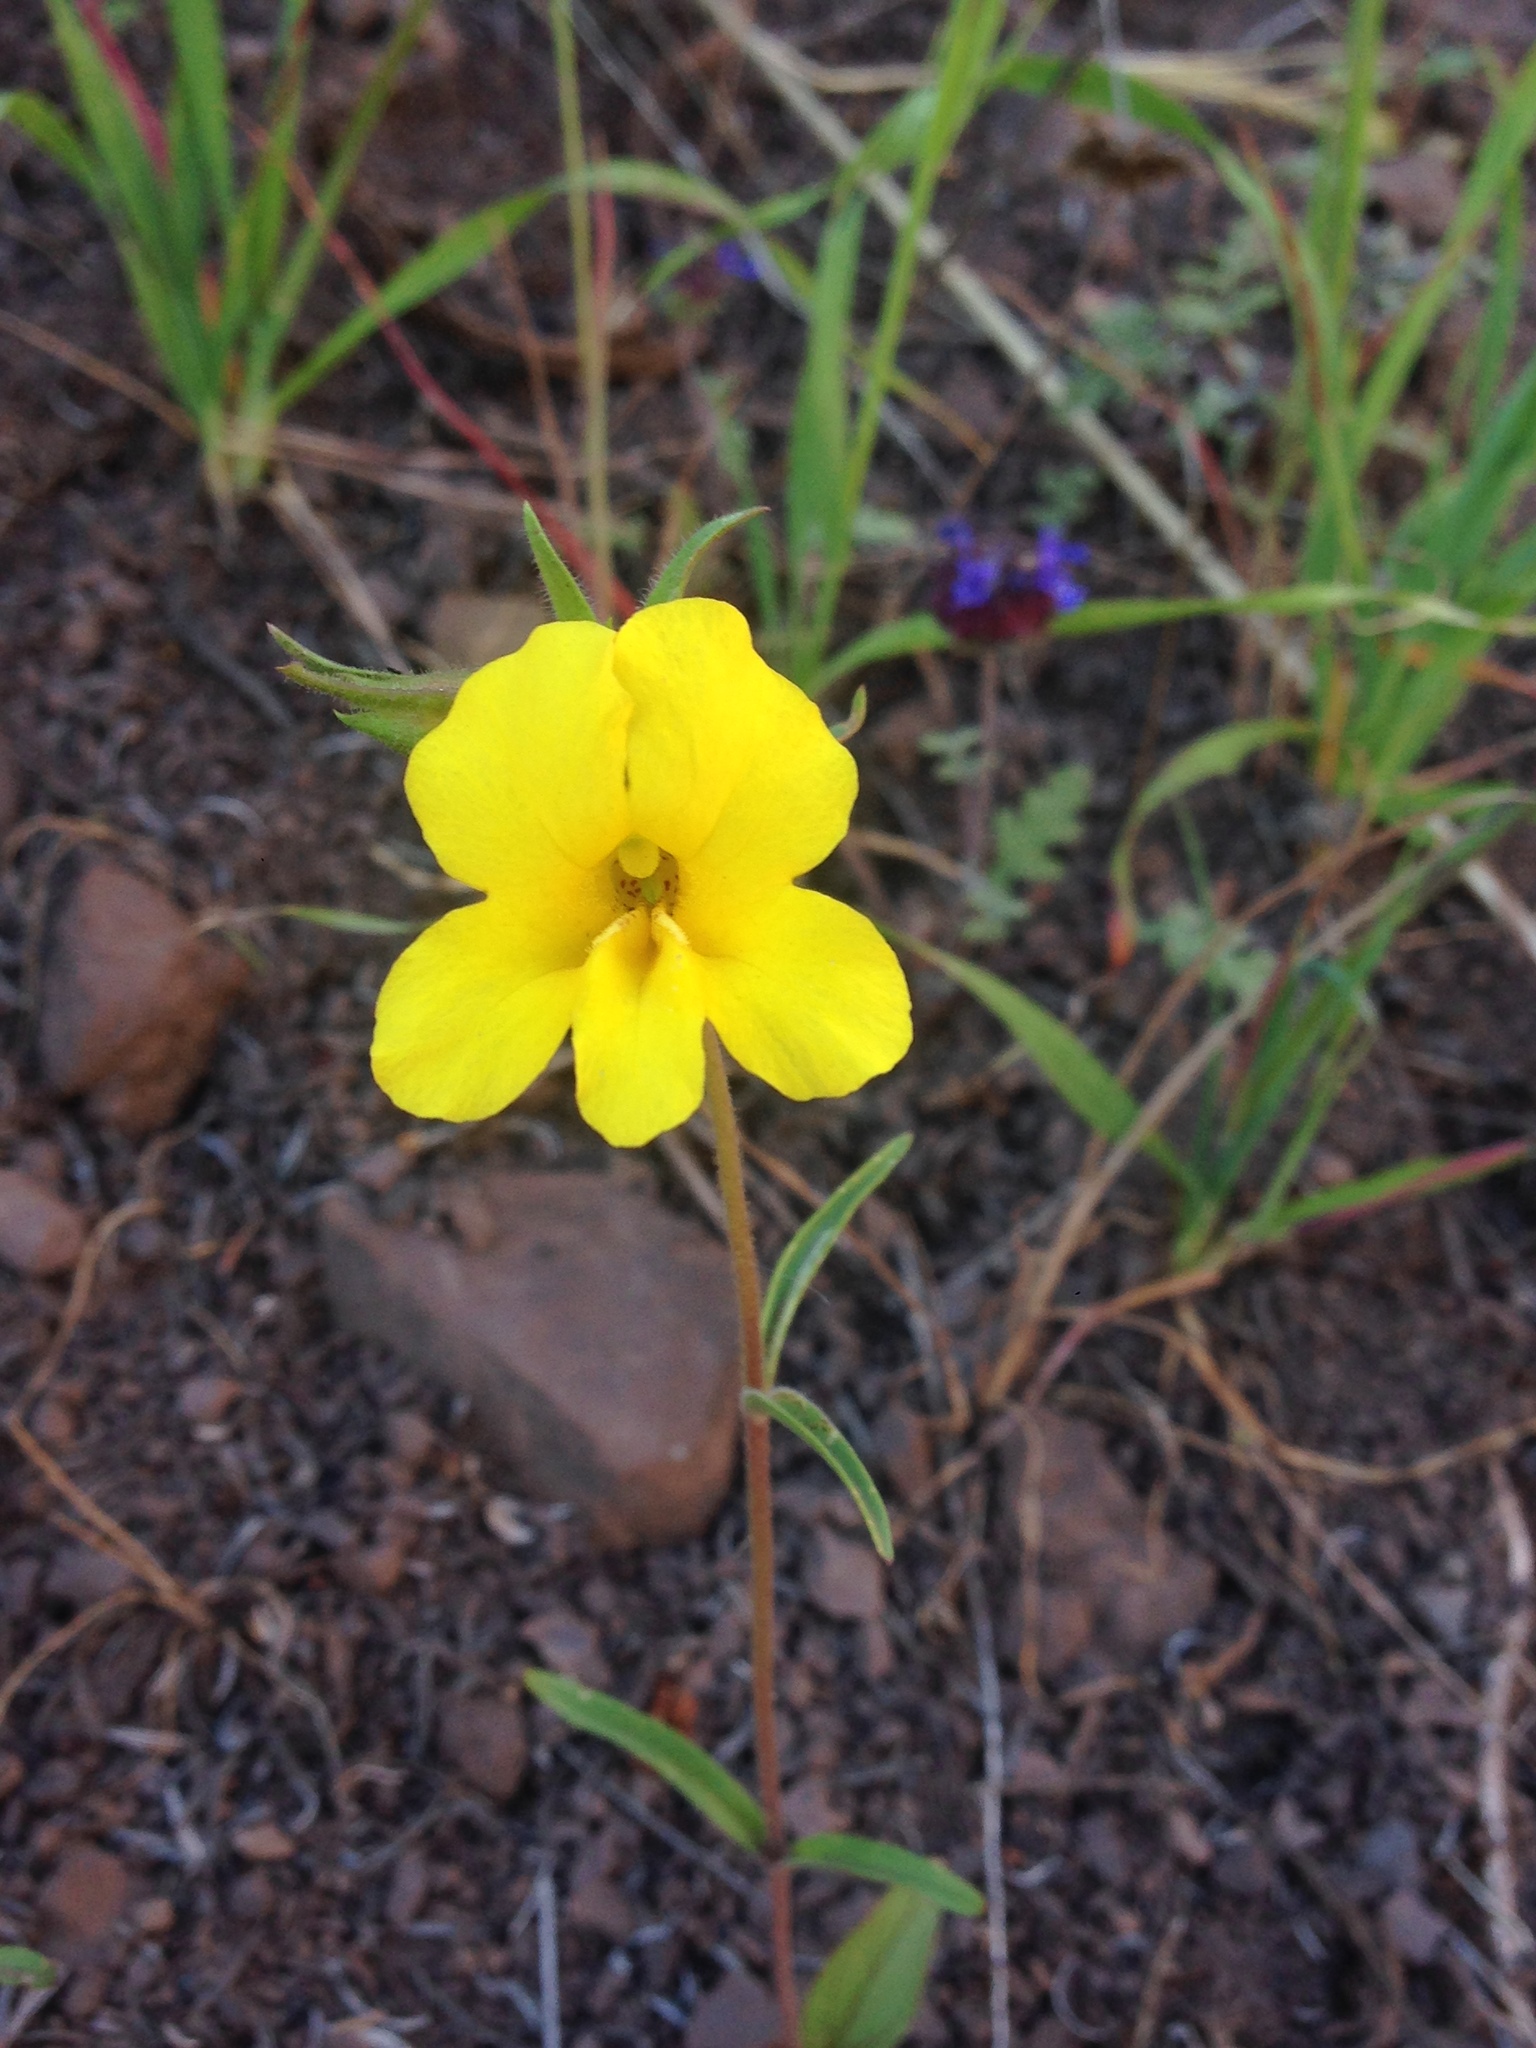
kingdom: Plantae
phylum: Tracheophyta
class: Magnoliopsida
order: Lamiales
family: Phrymaceae
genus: Diplacus
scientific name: Diplacus brevipes
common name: Wide-throat yellow monkey-flower
